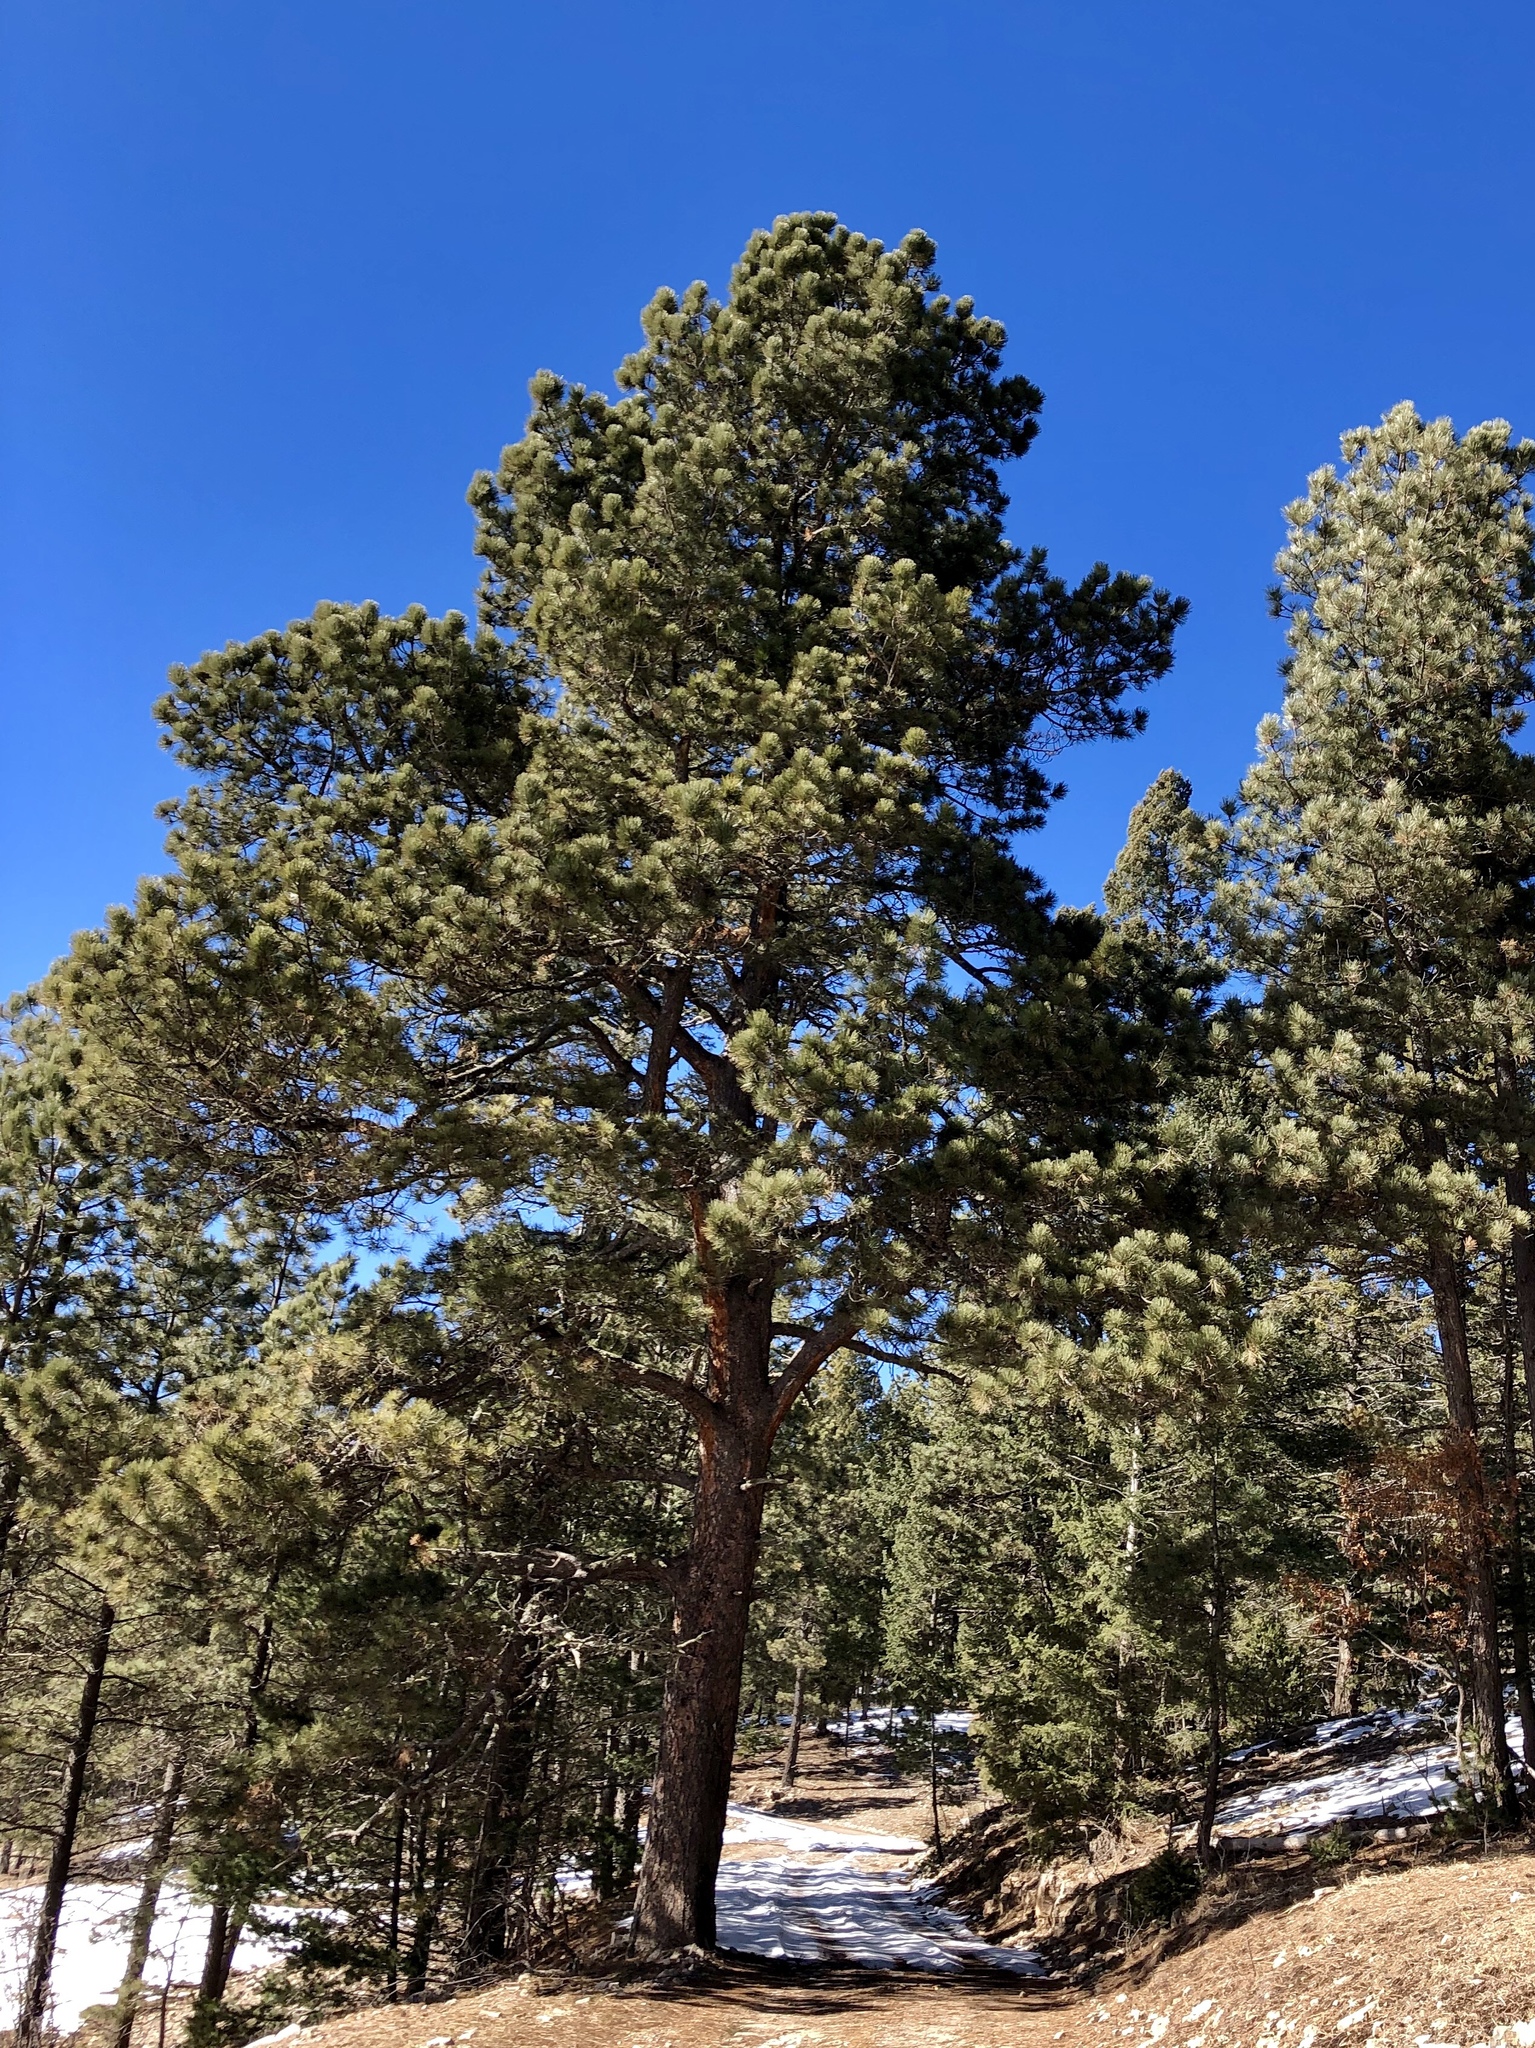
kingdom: Plantae
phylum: Tracheophyta
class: Pinopsida
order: Pinales
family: Pinaceae
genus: Pinus
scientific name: Pinus ponderosa
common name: Western yellow-pine
